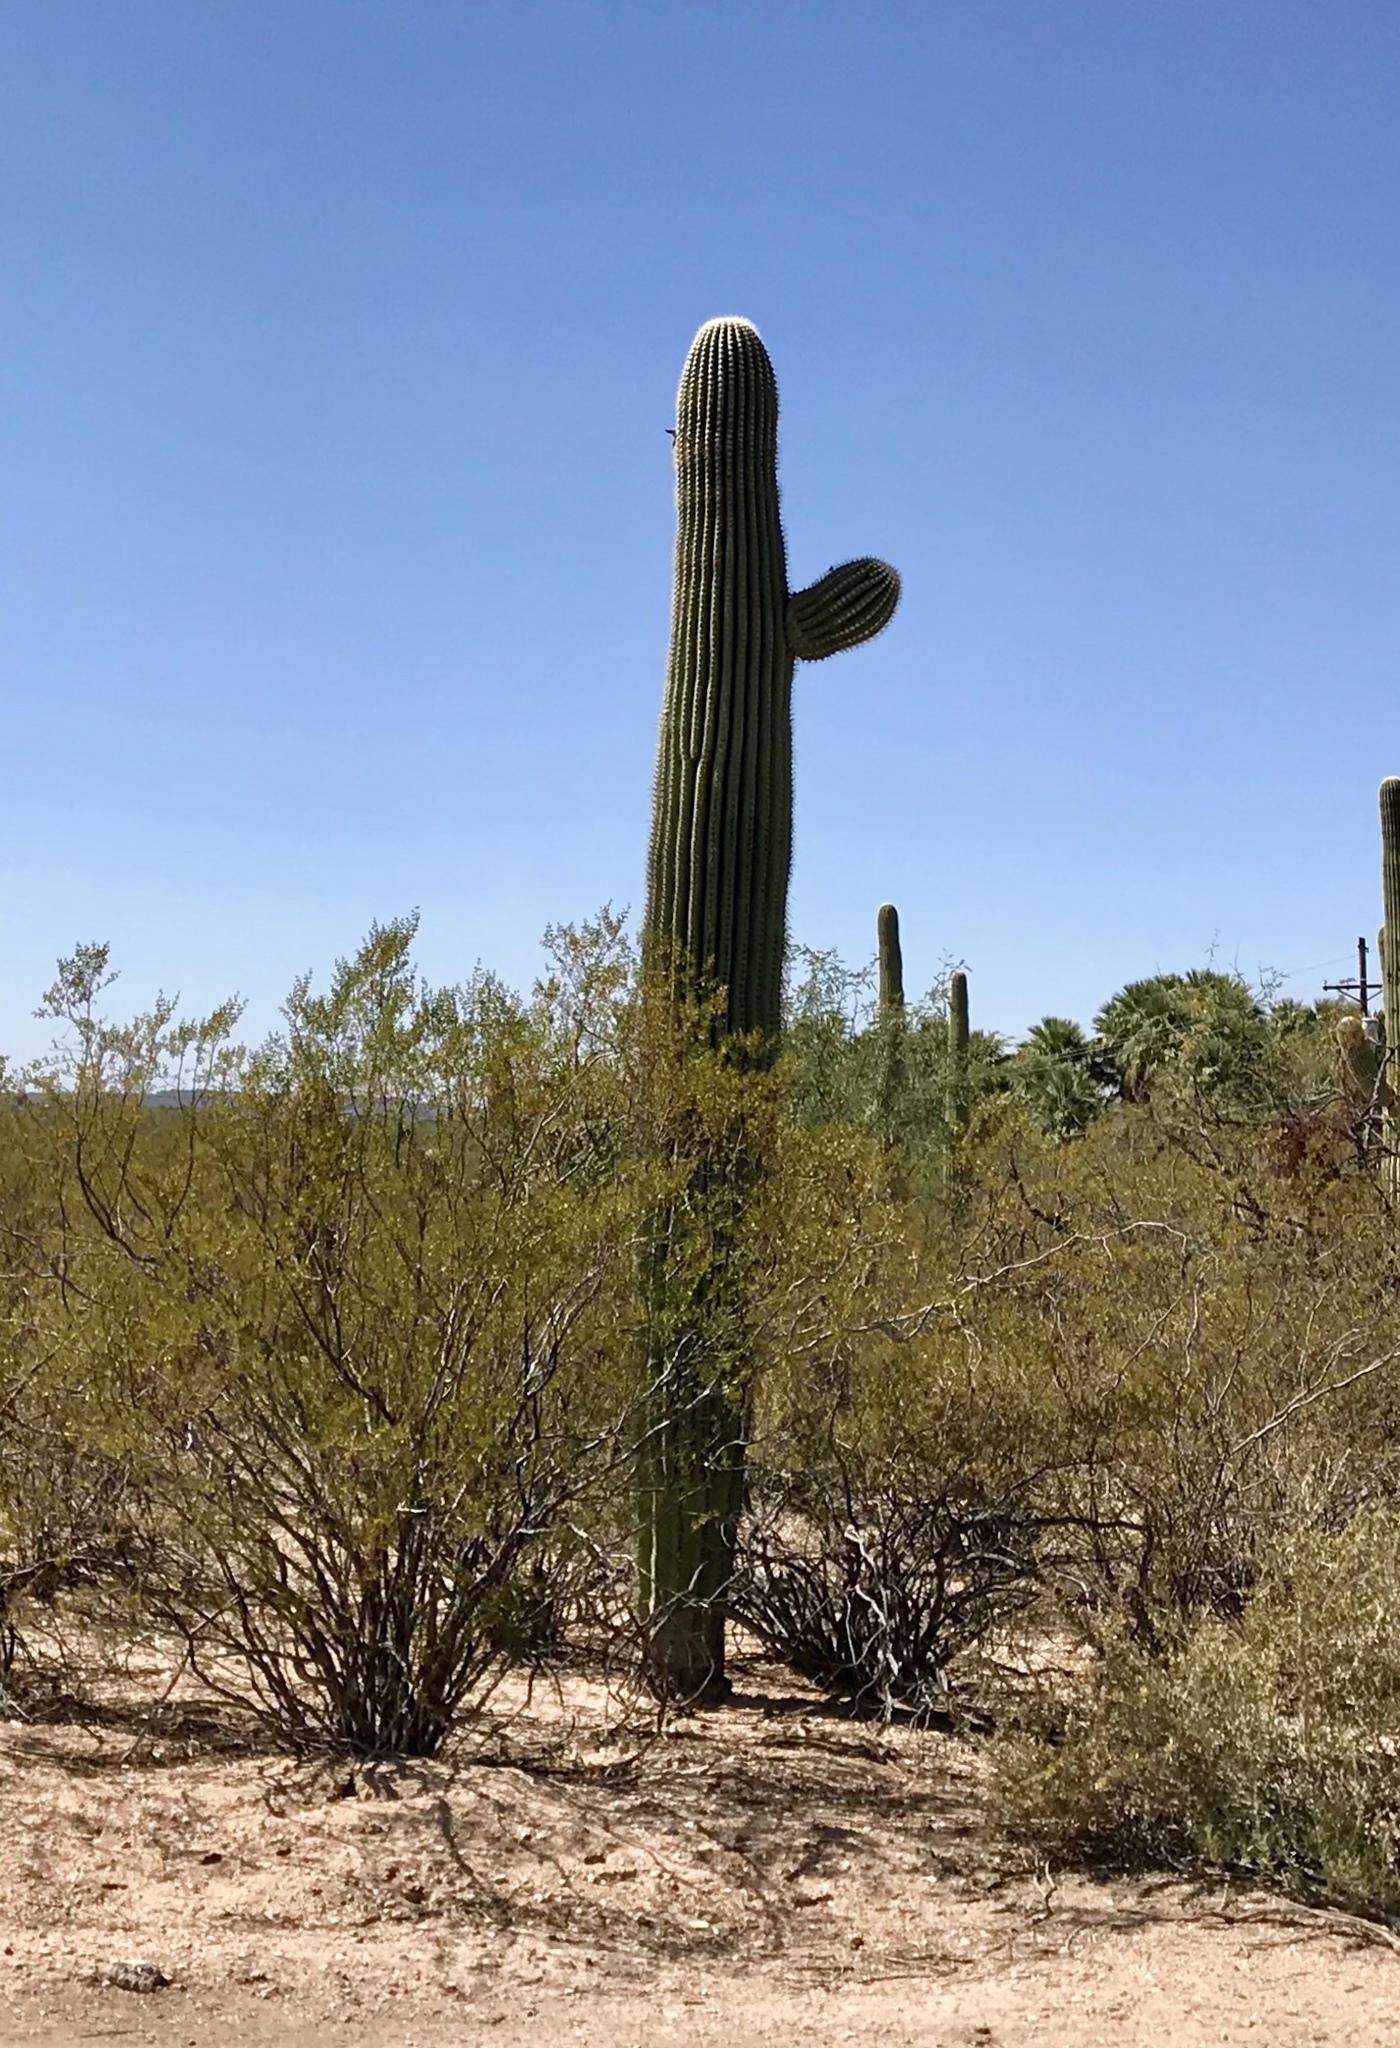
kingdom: Plantae
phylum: Tracheophyta
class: Magnoliopsida
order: Caryophyllales
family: Cactaceae
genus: Carnegiea
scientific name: Carnegiea gigantea
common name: Saguaro
